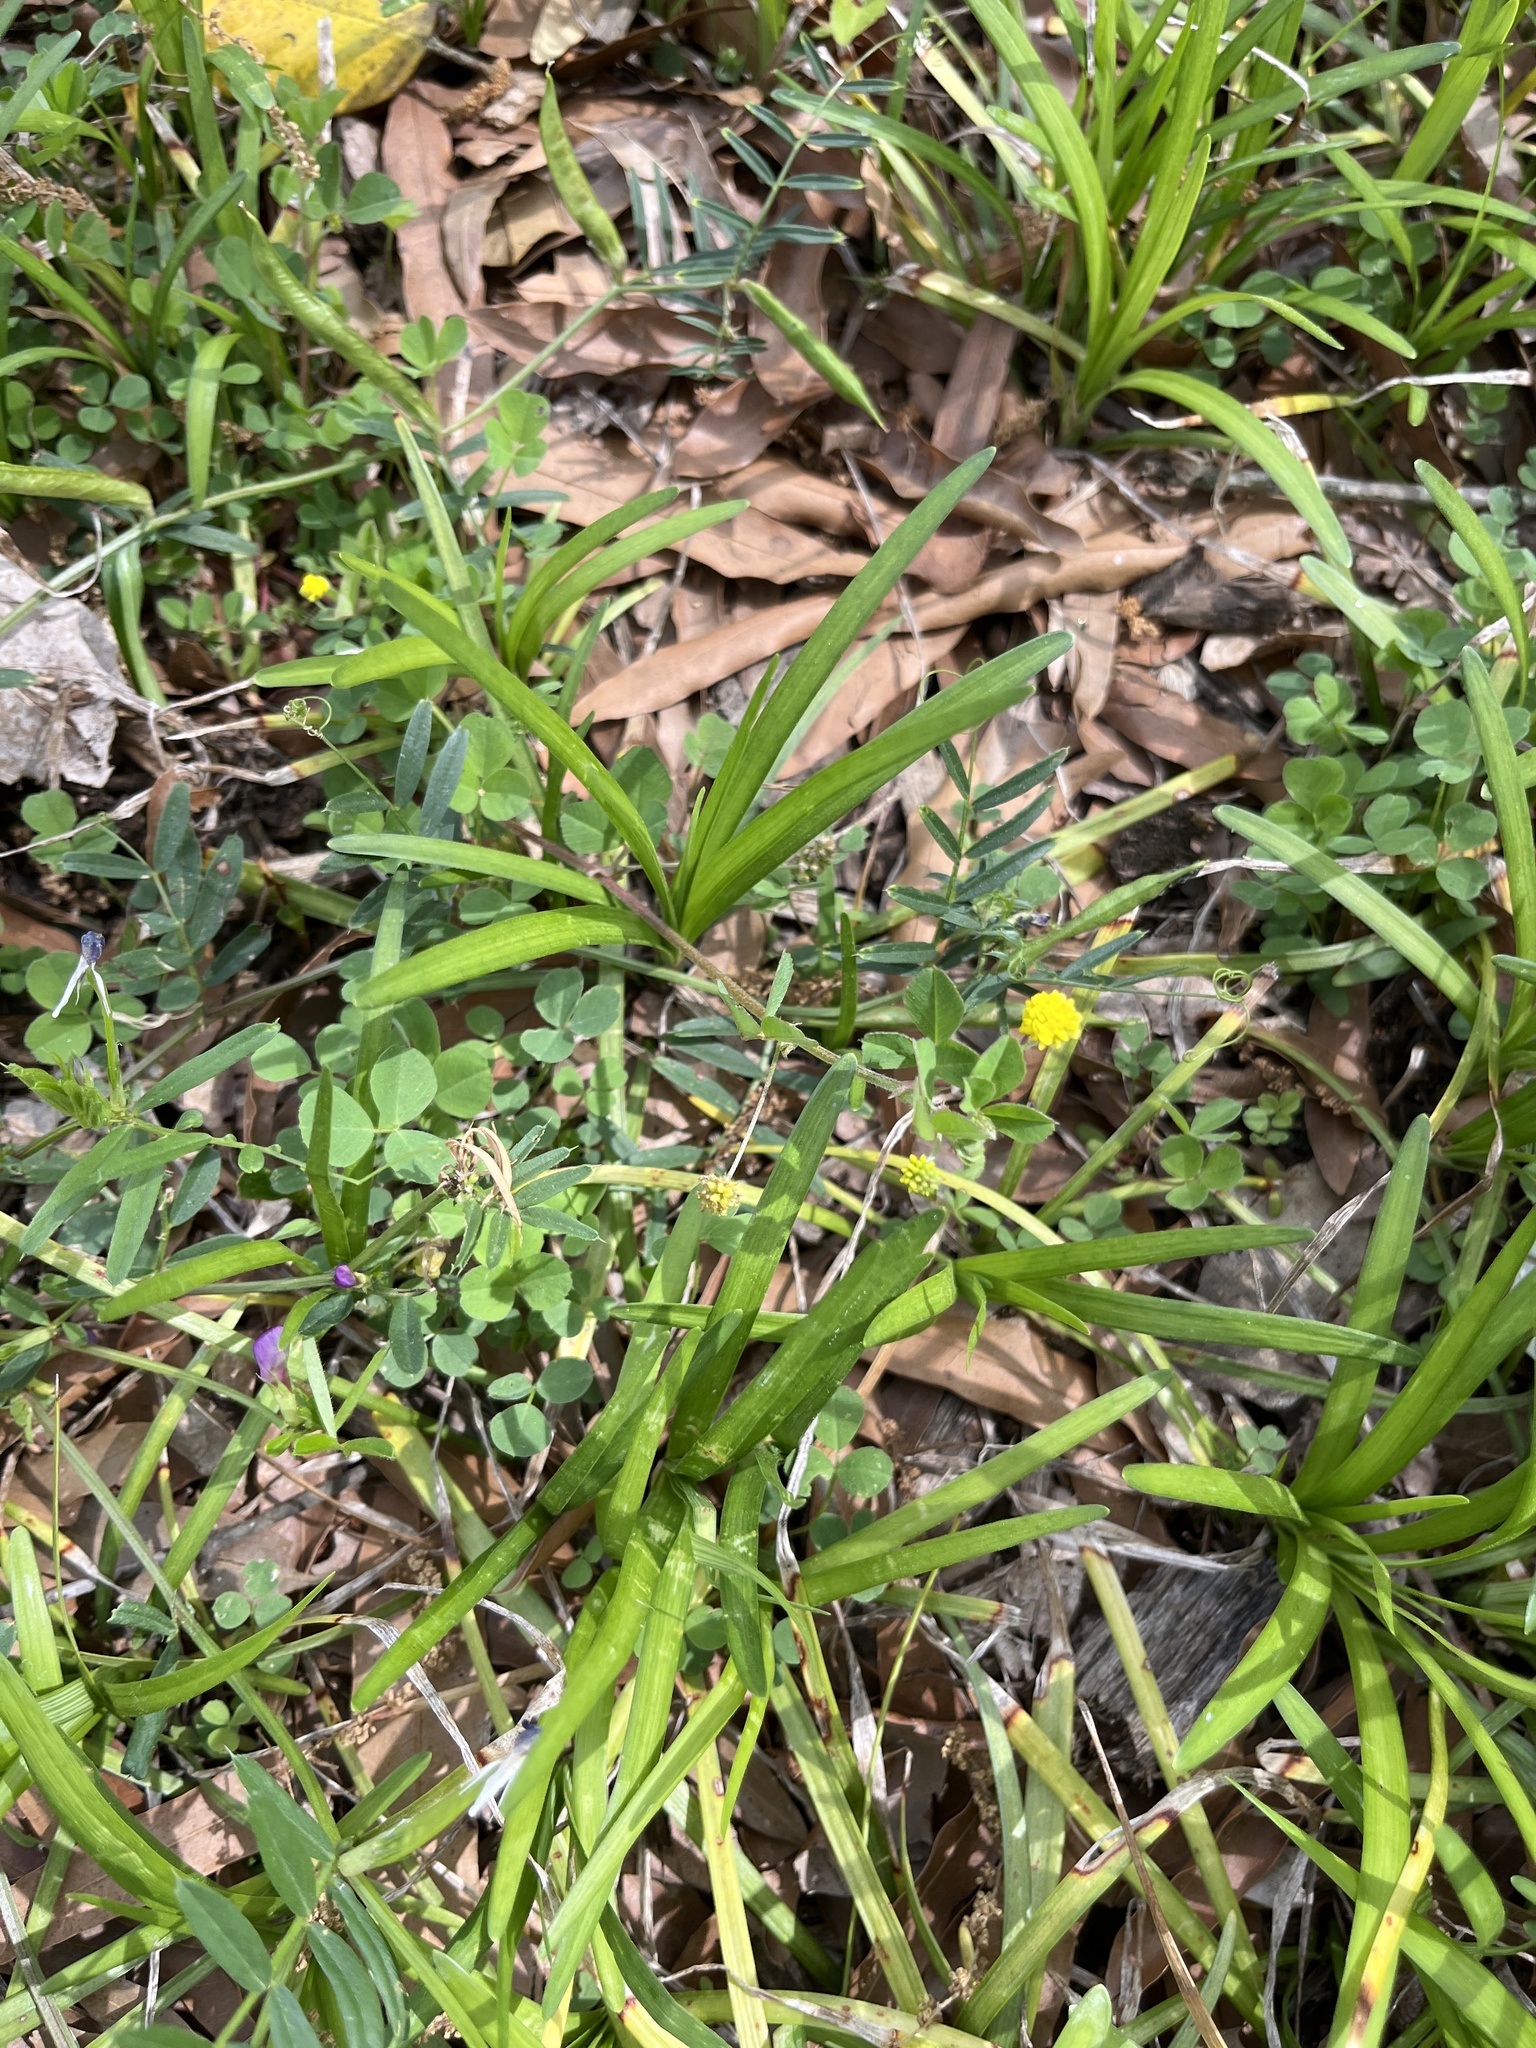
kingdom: Plantae
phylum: Tracheophyta
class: Magnoliopsida
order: Fabales
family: Fabaceae
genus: Medicago
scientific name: Medicago lupulina
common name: Black medick
